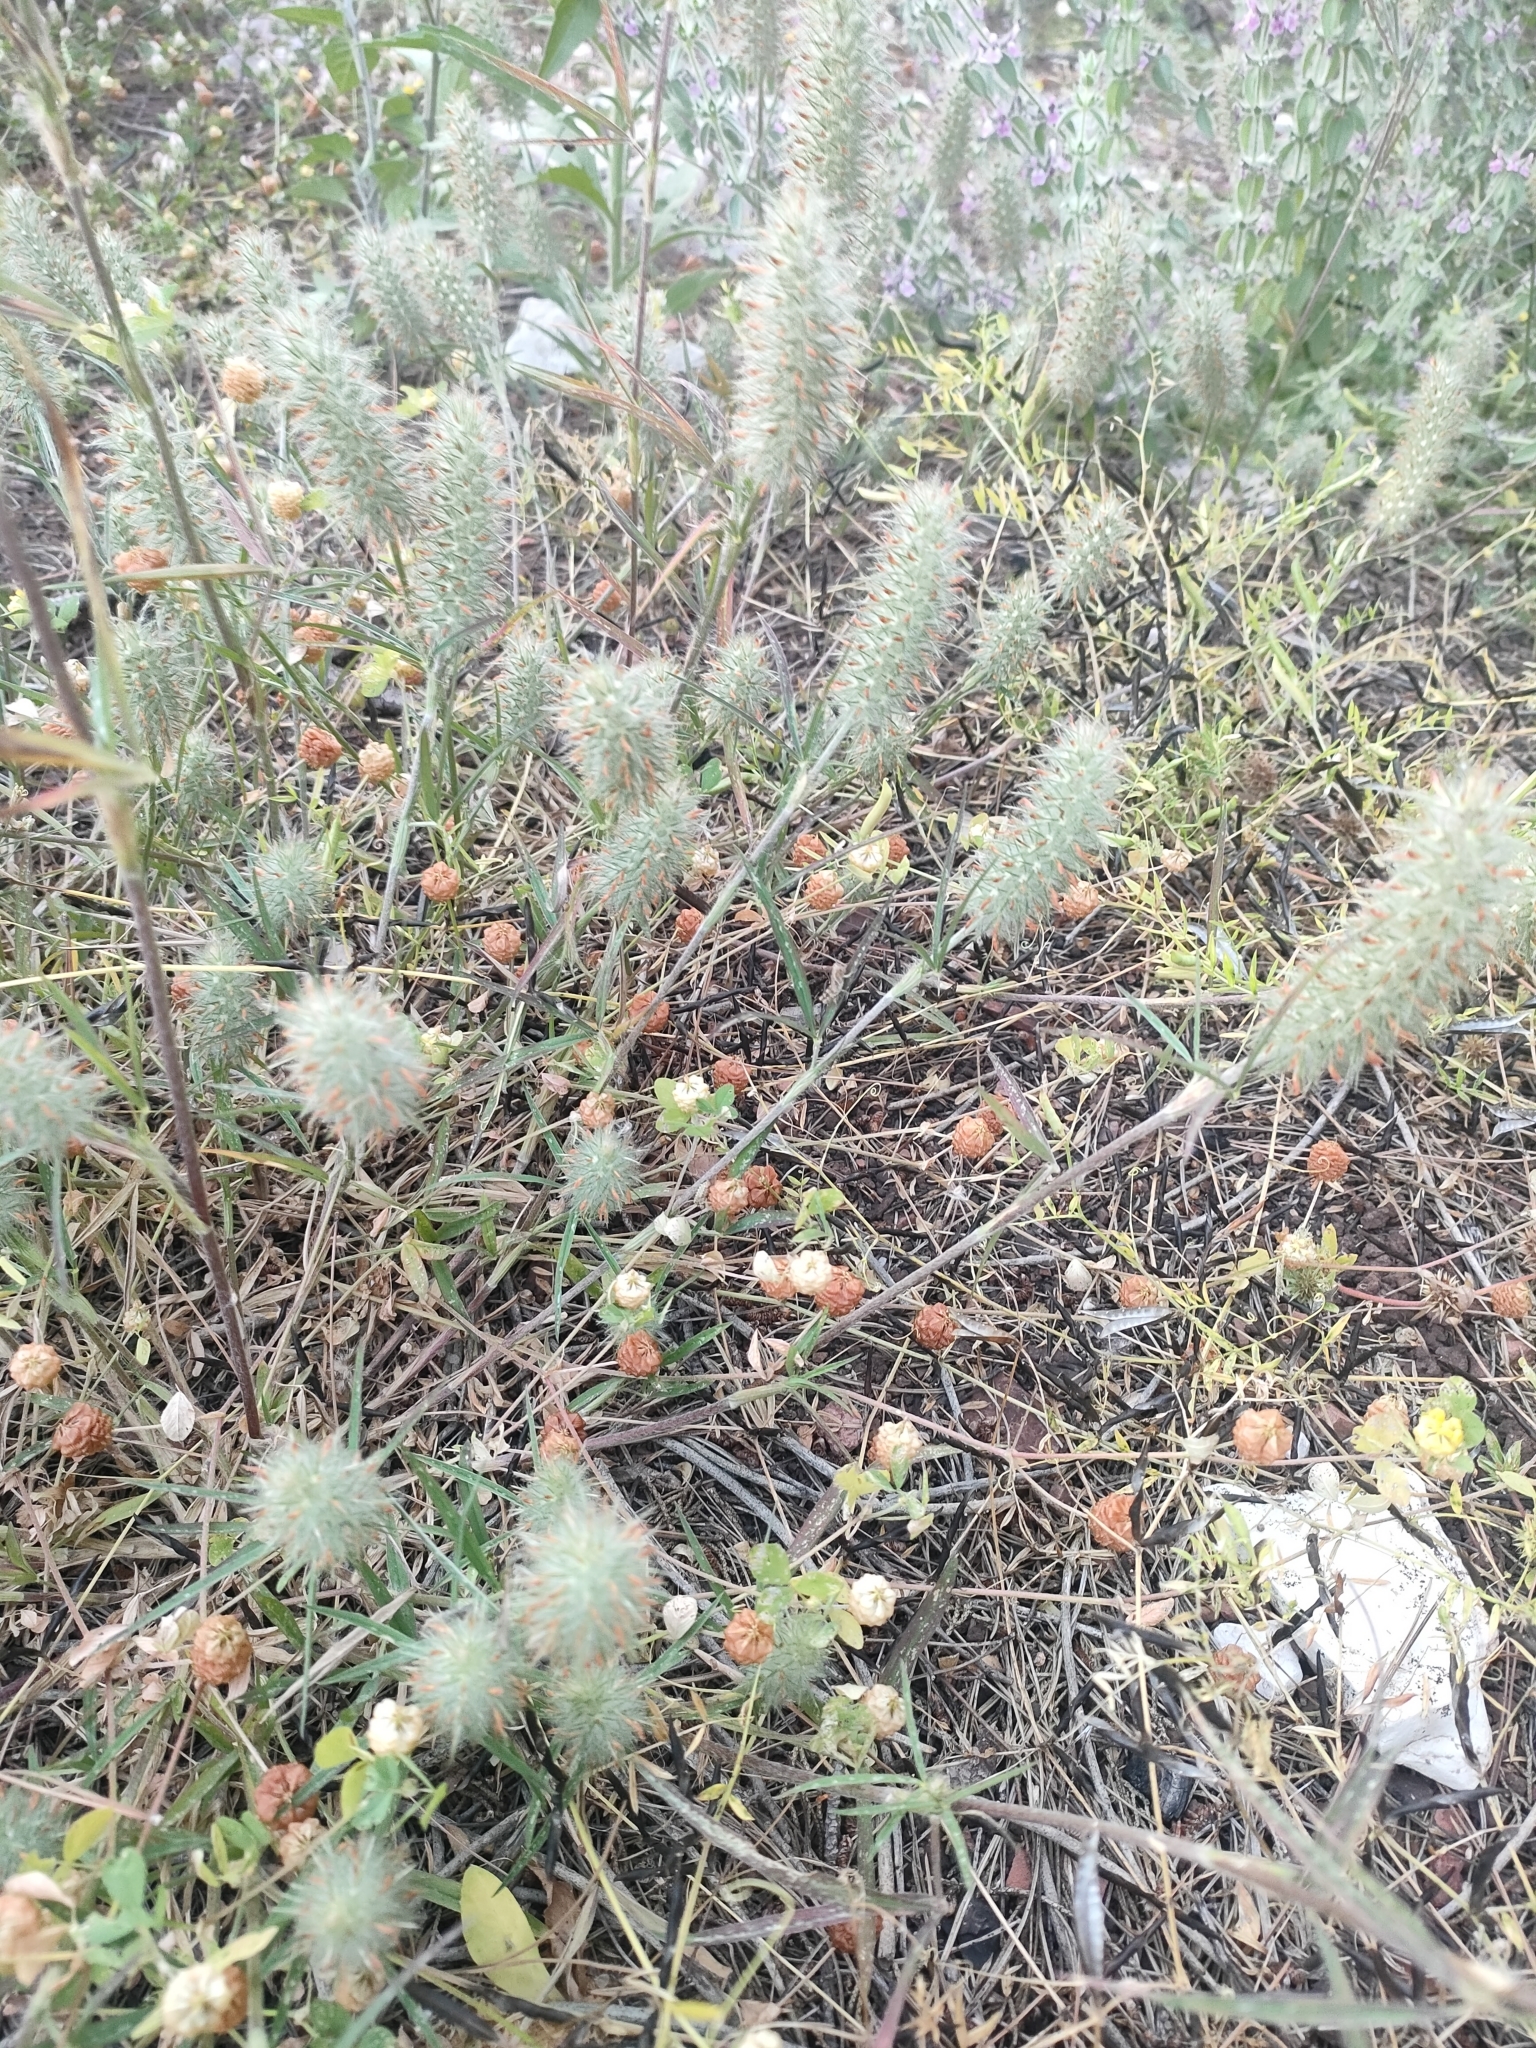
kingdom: Plantae
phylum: Tracheophyta
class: Magnoliopsida
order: Fabales
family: Fabaceae
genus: Trifolium
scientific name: Trifolium angustifolium
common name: Narrow clover
